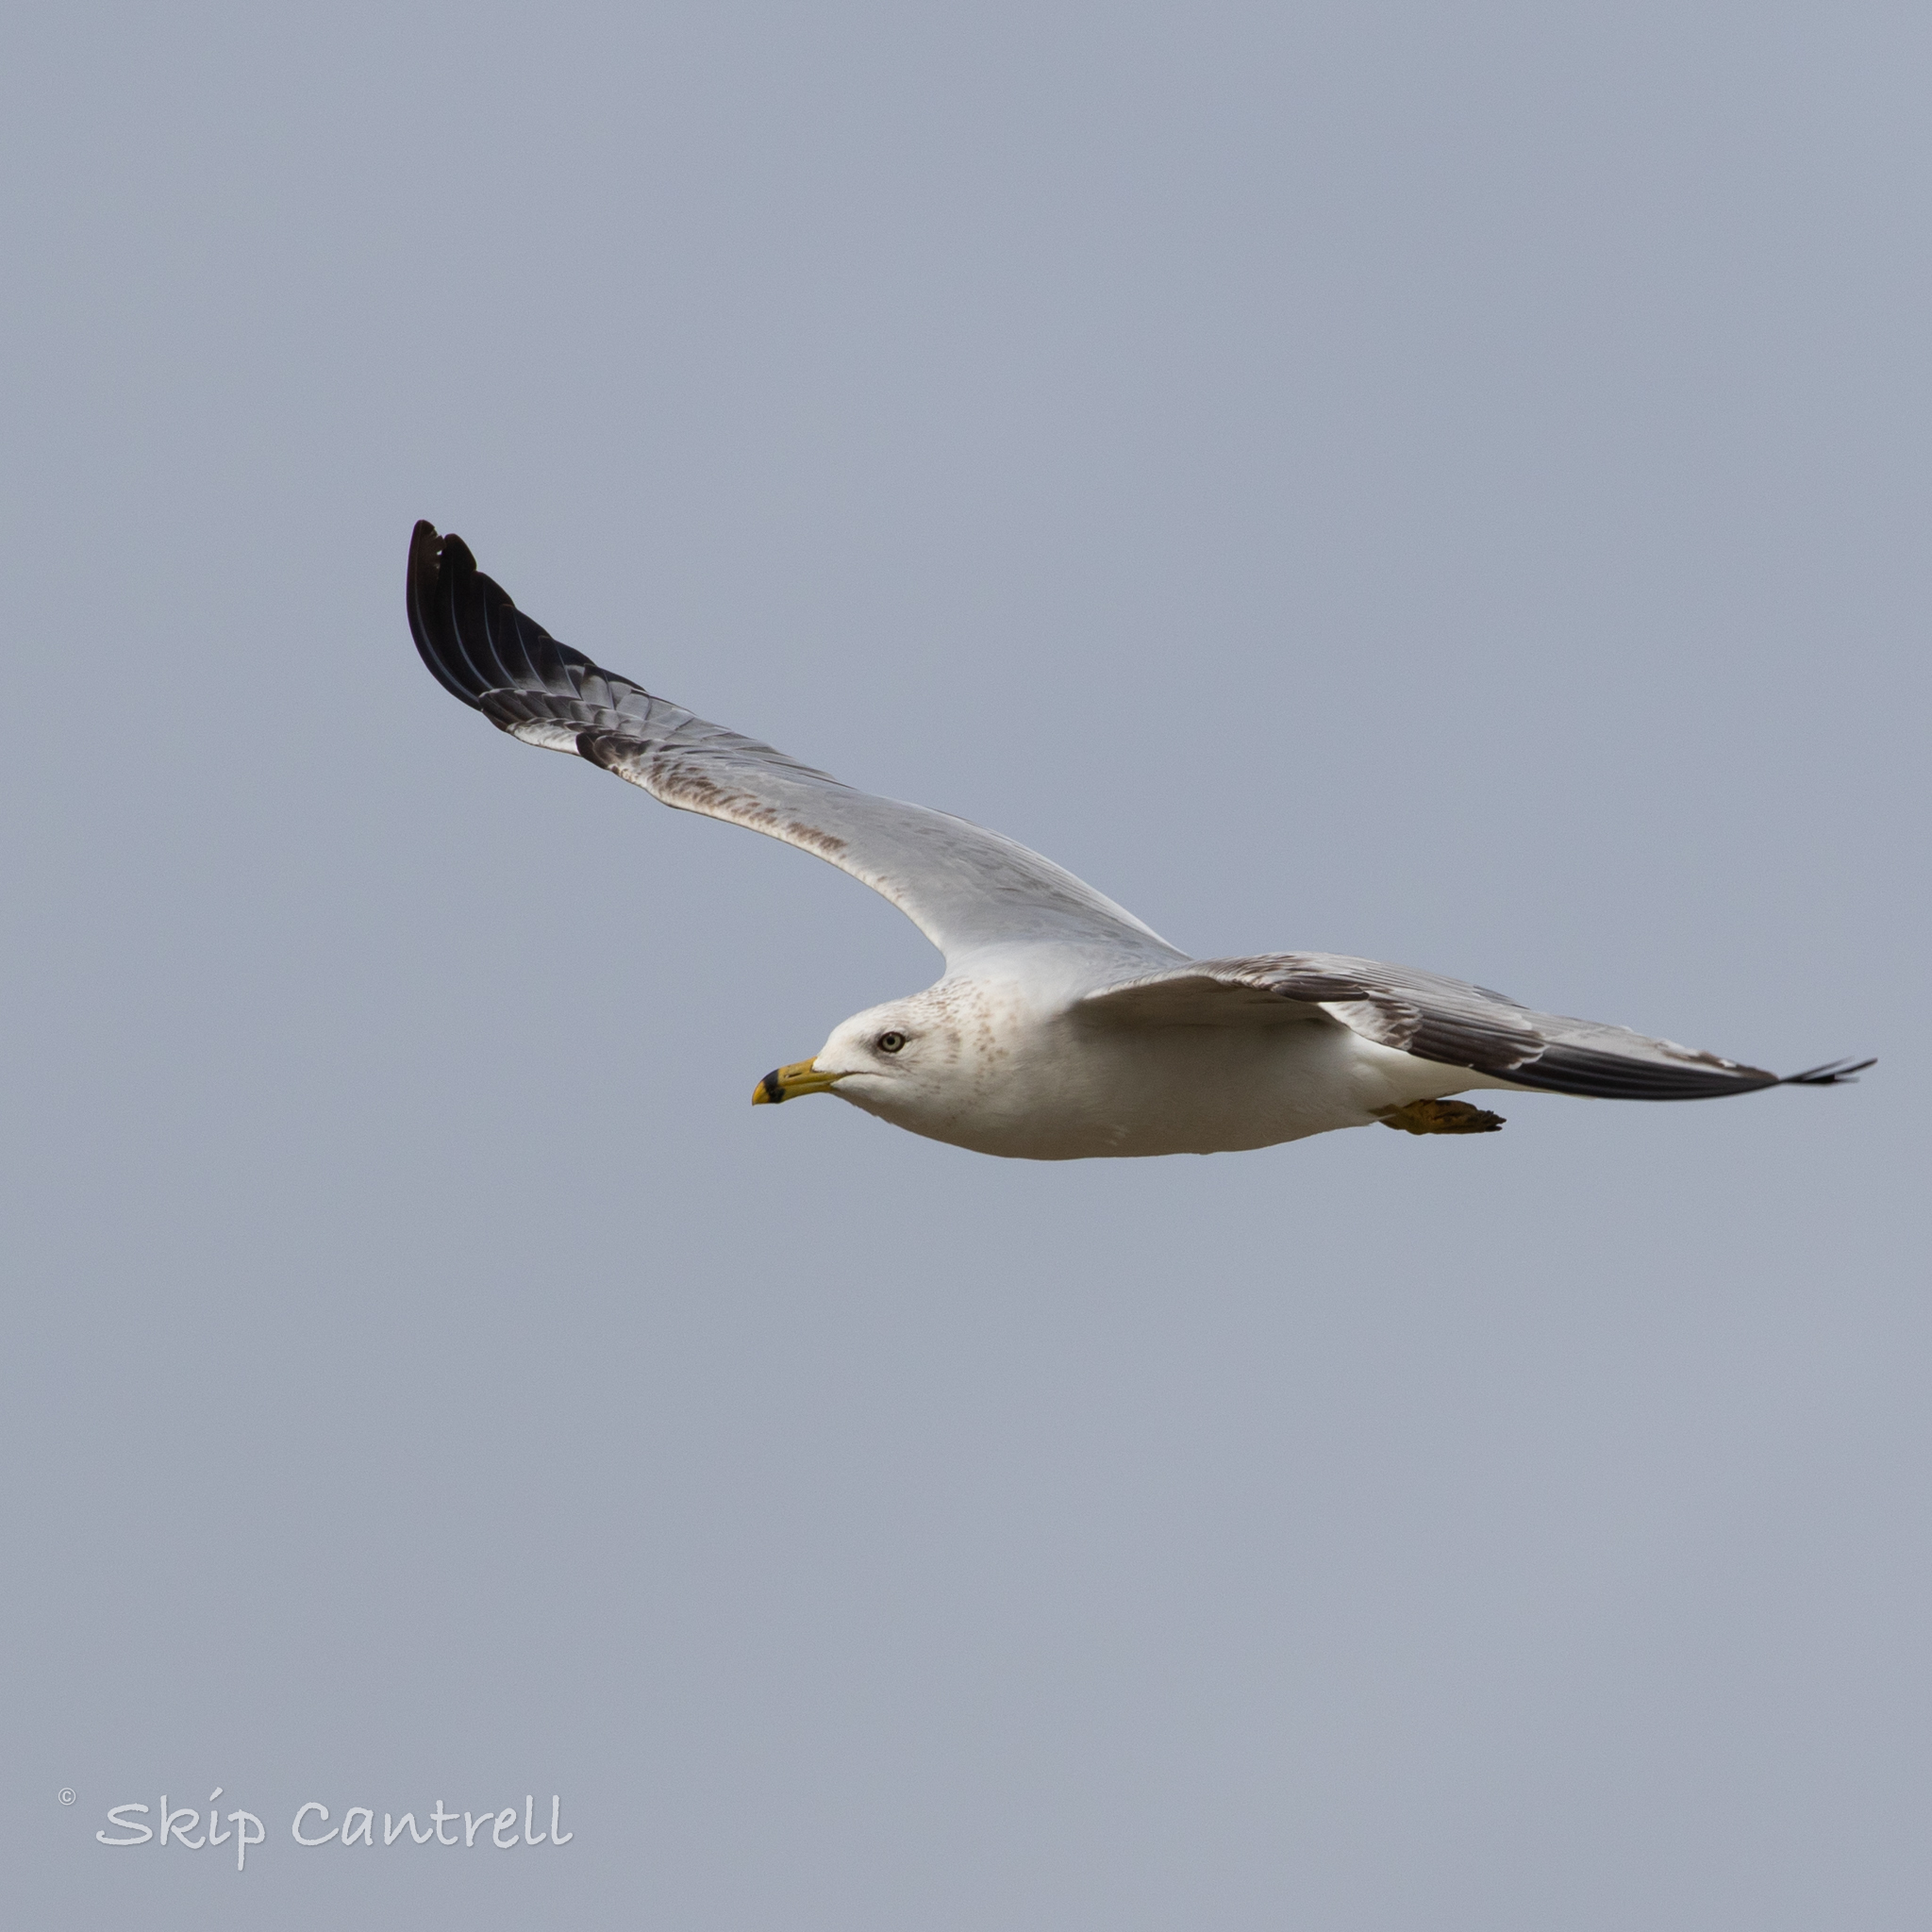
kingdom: Animalia
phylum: Chordata
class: Aves
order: Charadriiformes
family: Laridae
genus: Larus
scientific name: Larus delawarensis
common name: Ring-billed gull
